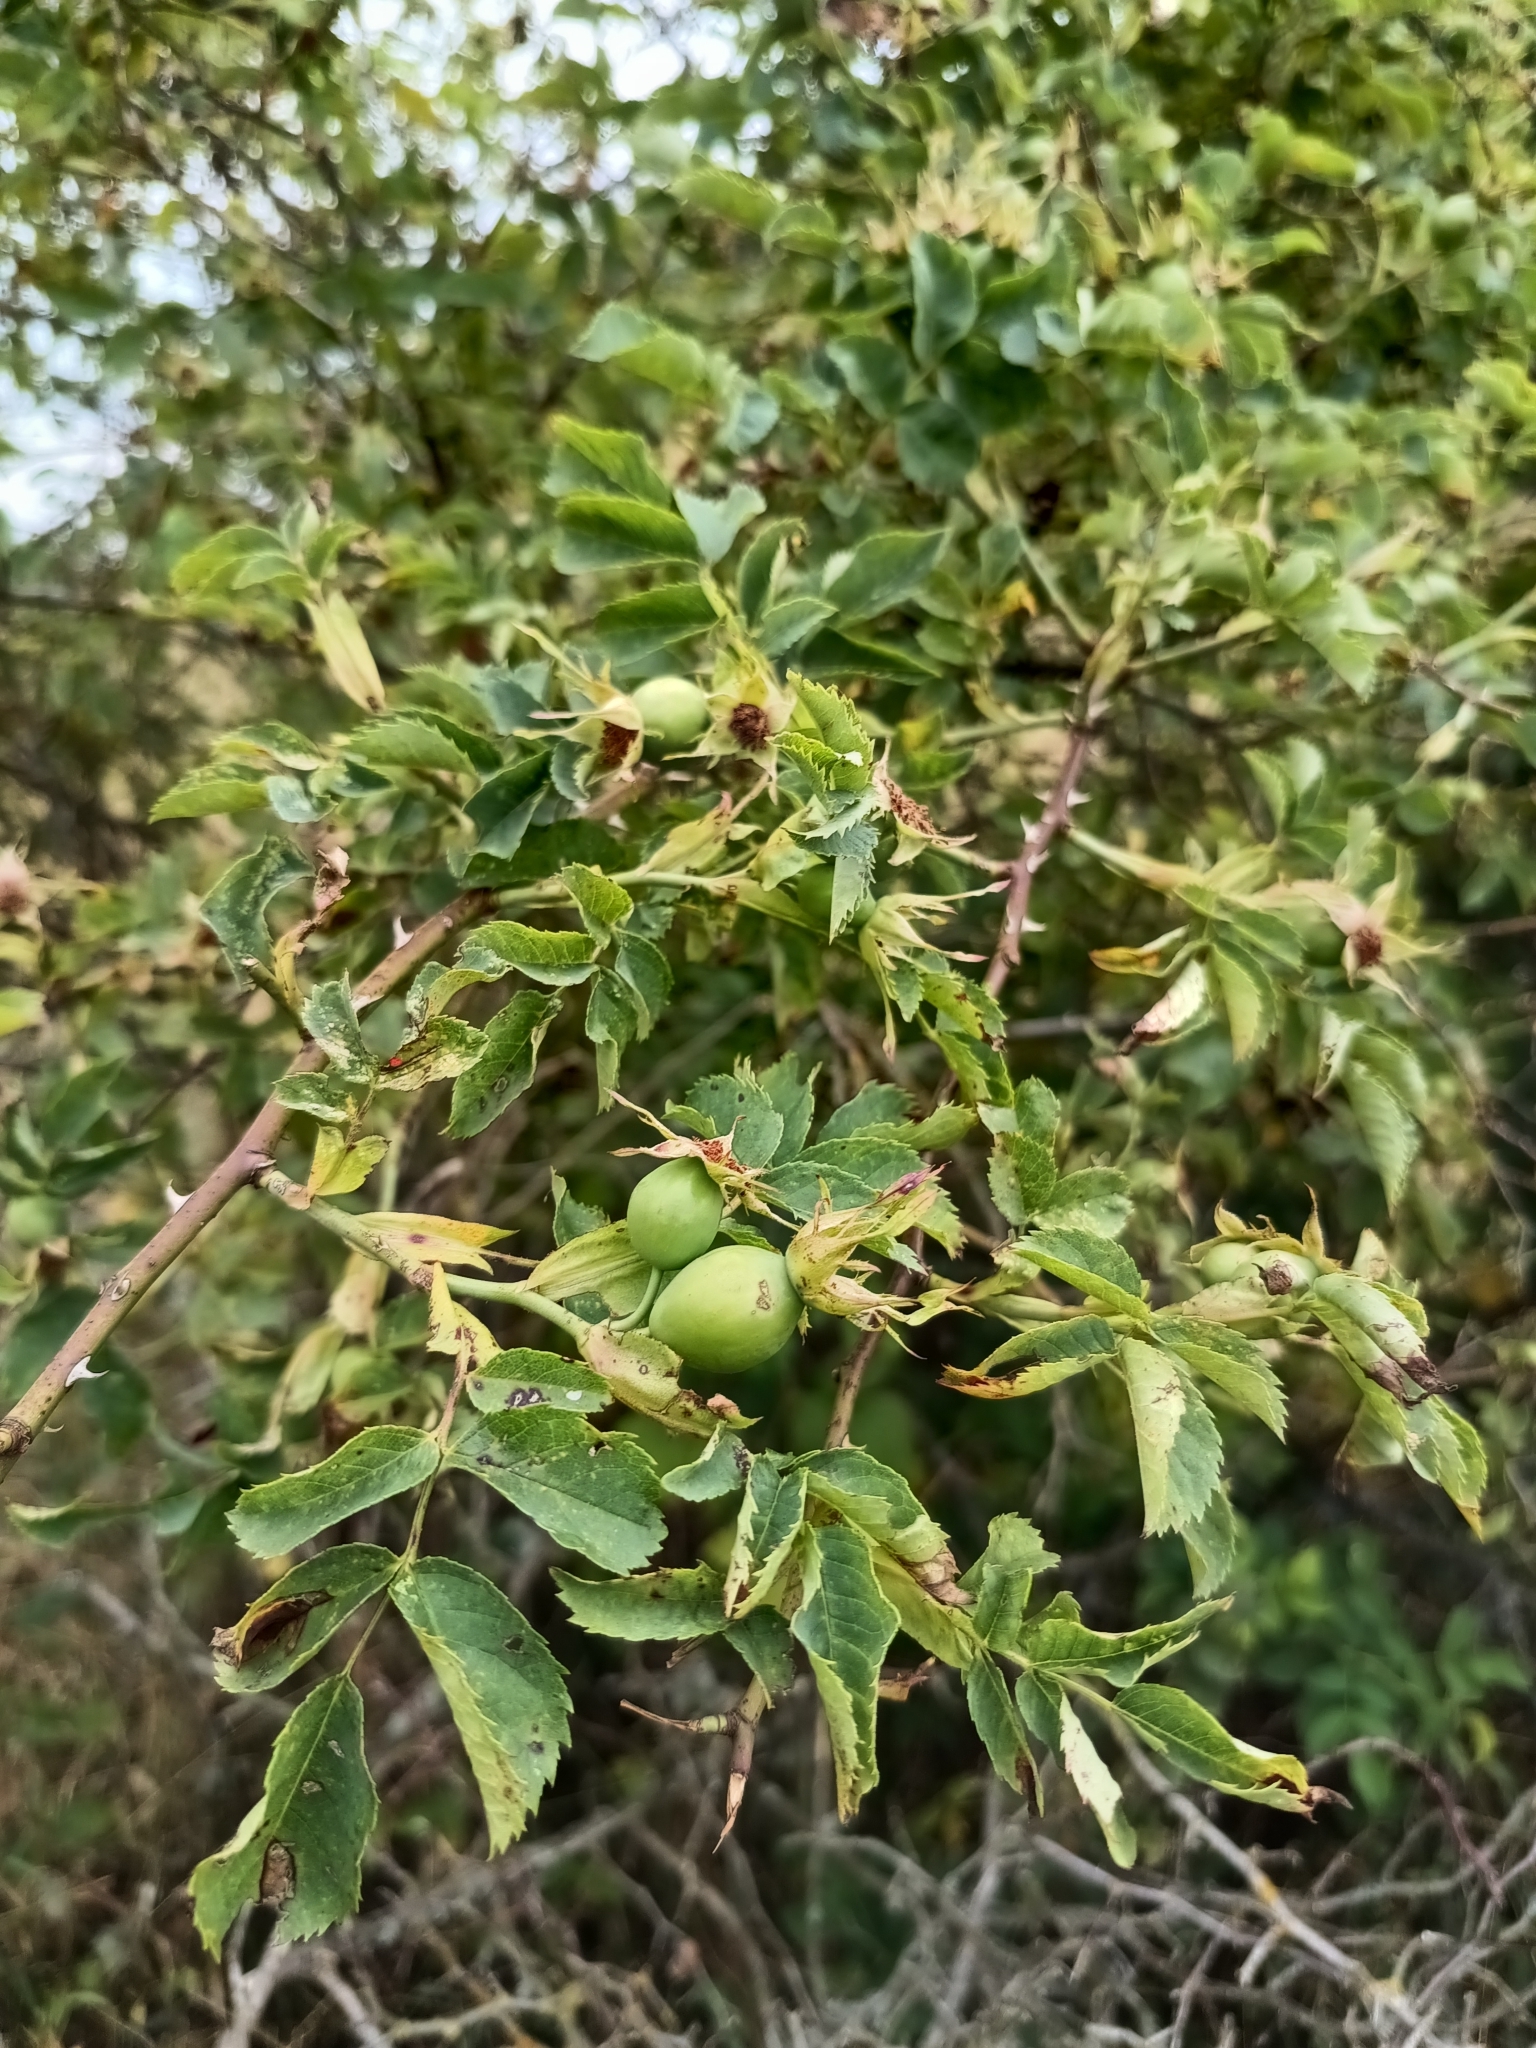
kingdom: Plantae
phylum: Tracheophyta
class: Magnoliopsida
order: Rosales
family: Rosaceae
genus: Rosa
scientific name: Rosa dumalis
